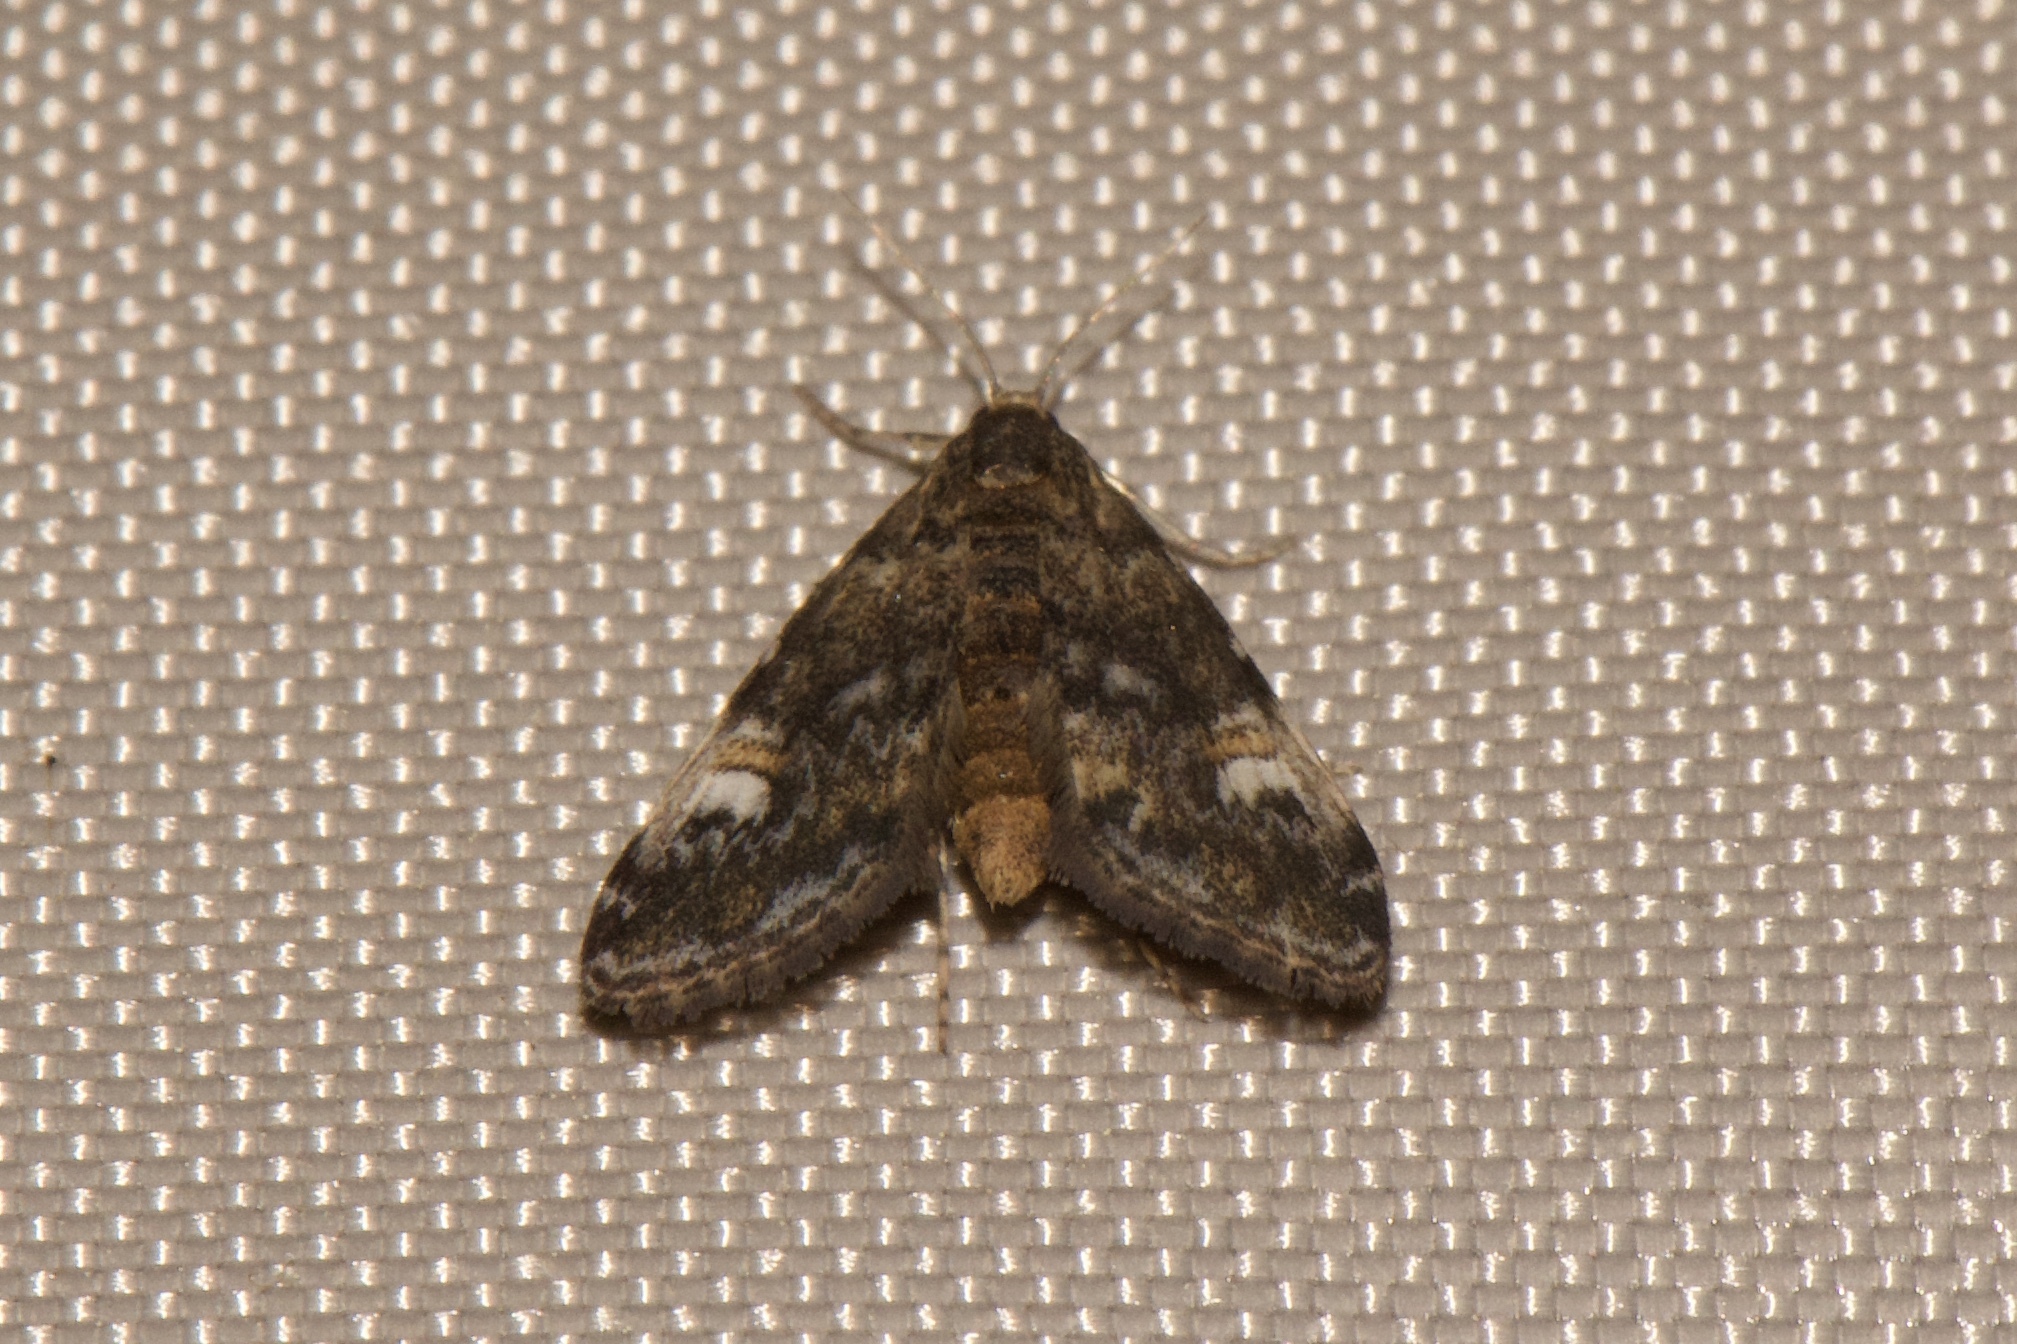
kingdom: Animalia
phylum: Arthropoda
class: Insecta
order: Lepidoptera
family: Crambidae
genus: Elophila
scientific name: Elophila obliteralis
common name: Waterlily leafcutter moth
